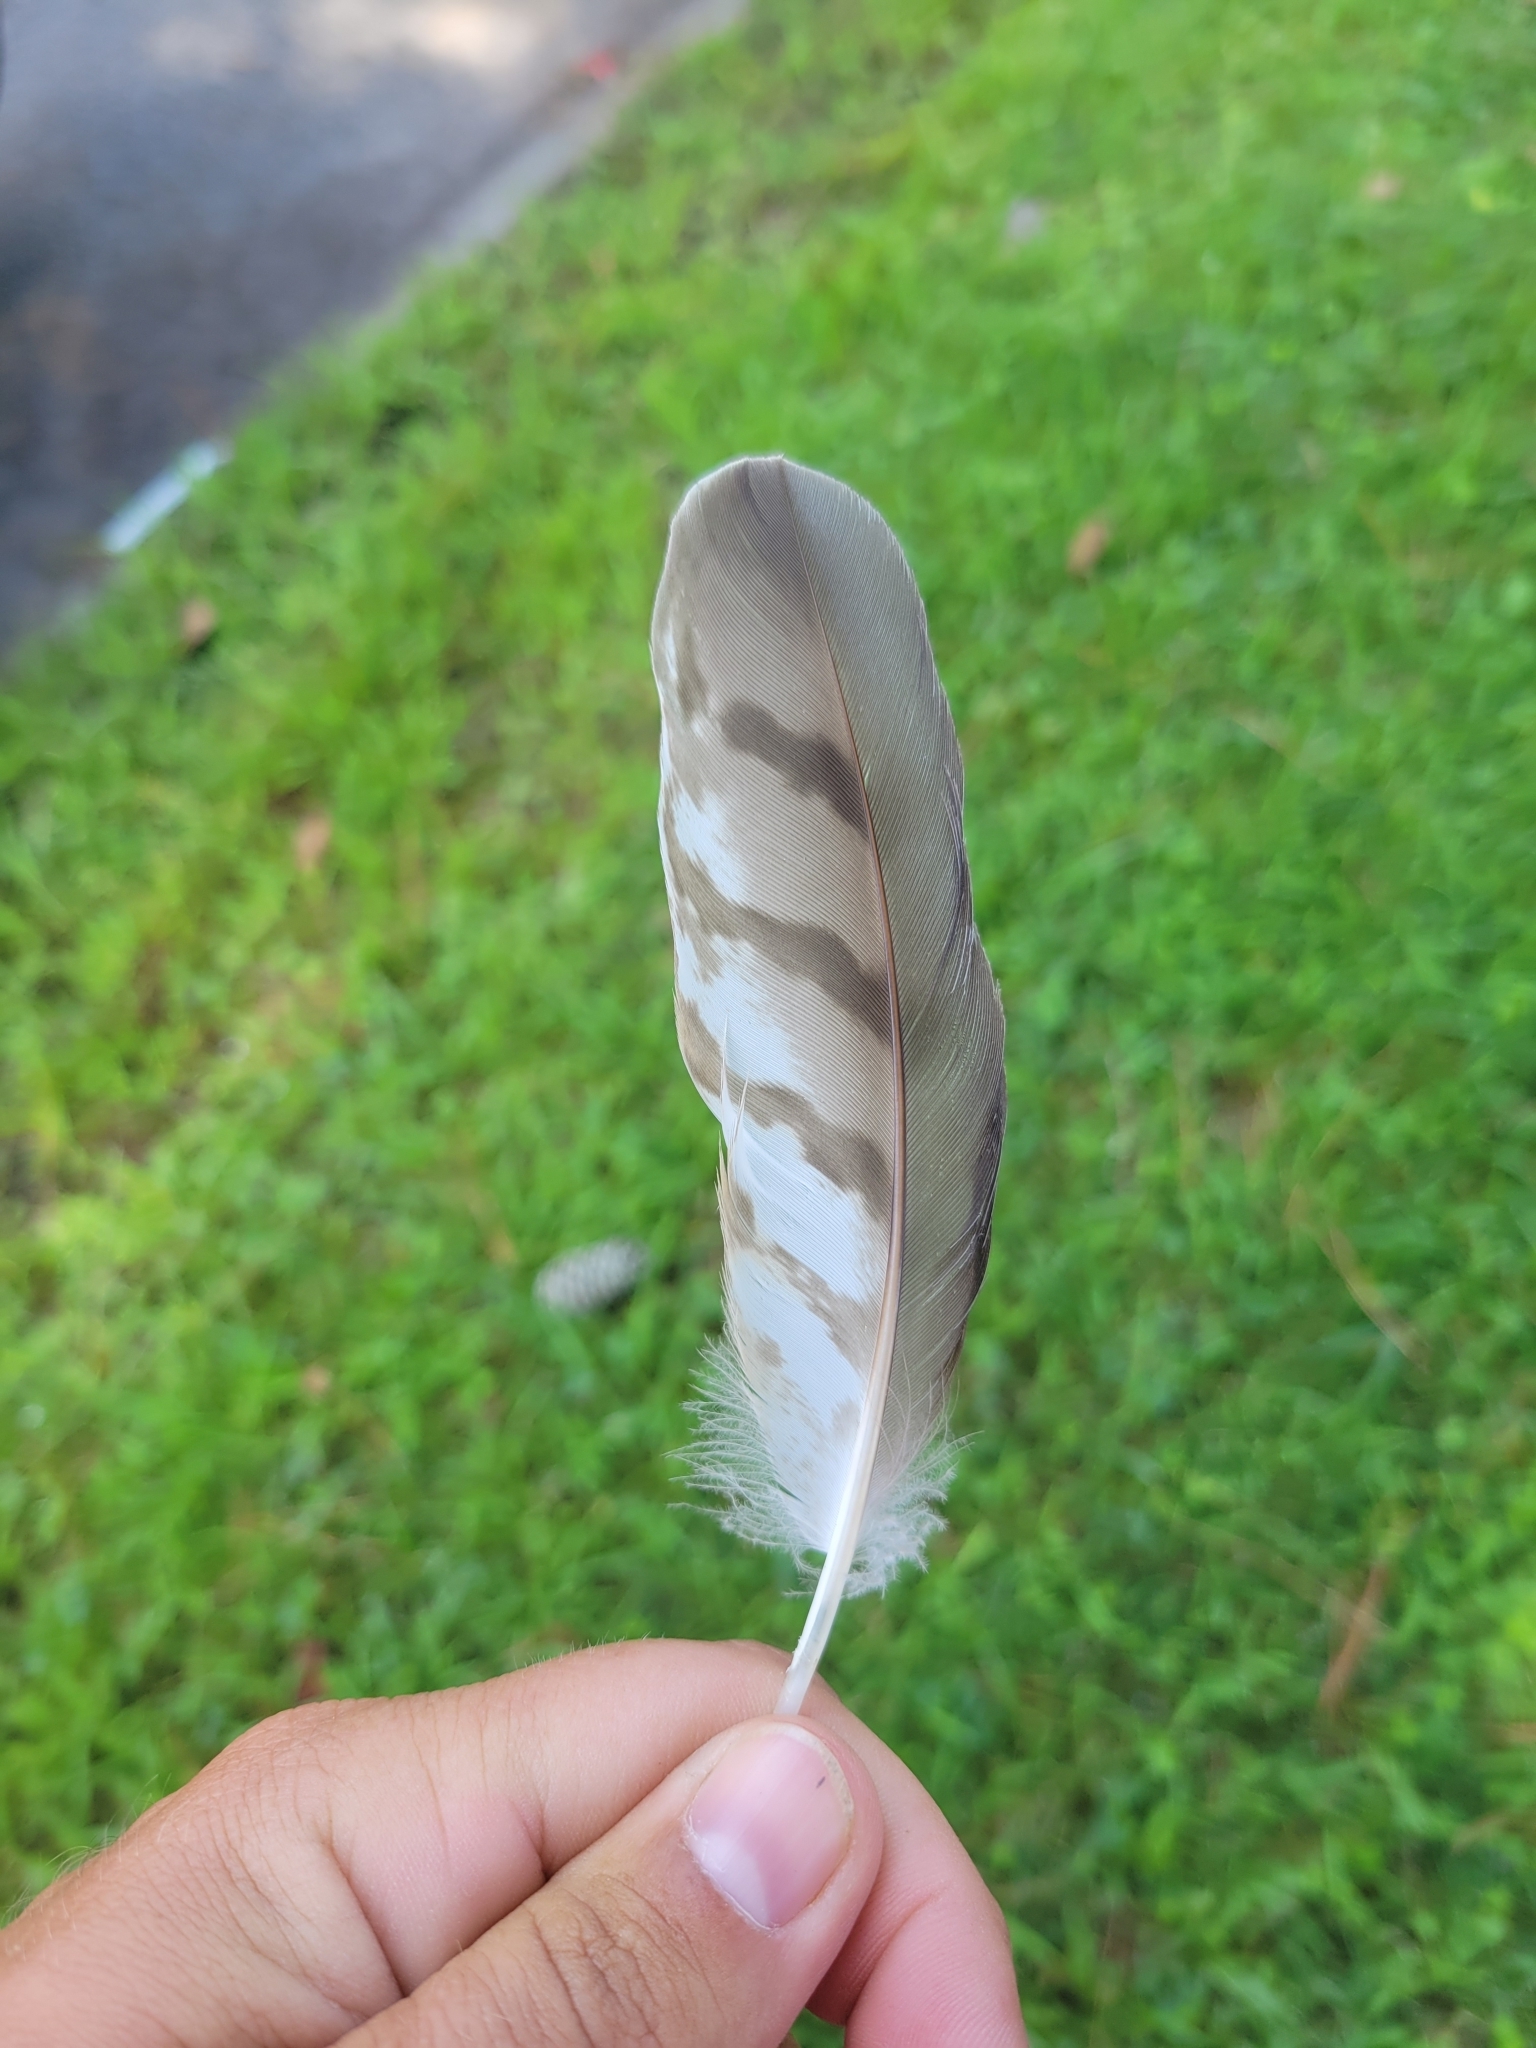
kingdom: Animalia
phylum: Chordata
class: Aves
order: Accipitriformes
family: Accipitridae
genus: Accipiter
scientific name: Accipiter cooperii
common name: Cooper's hawk
